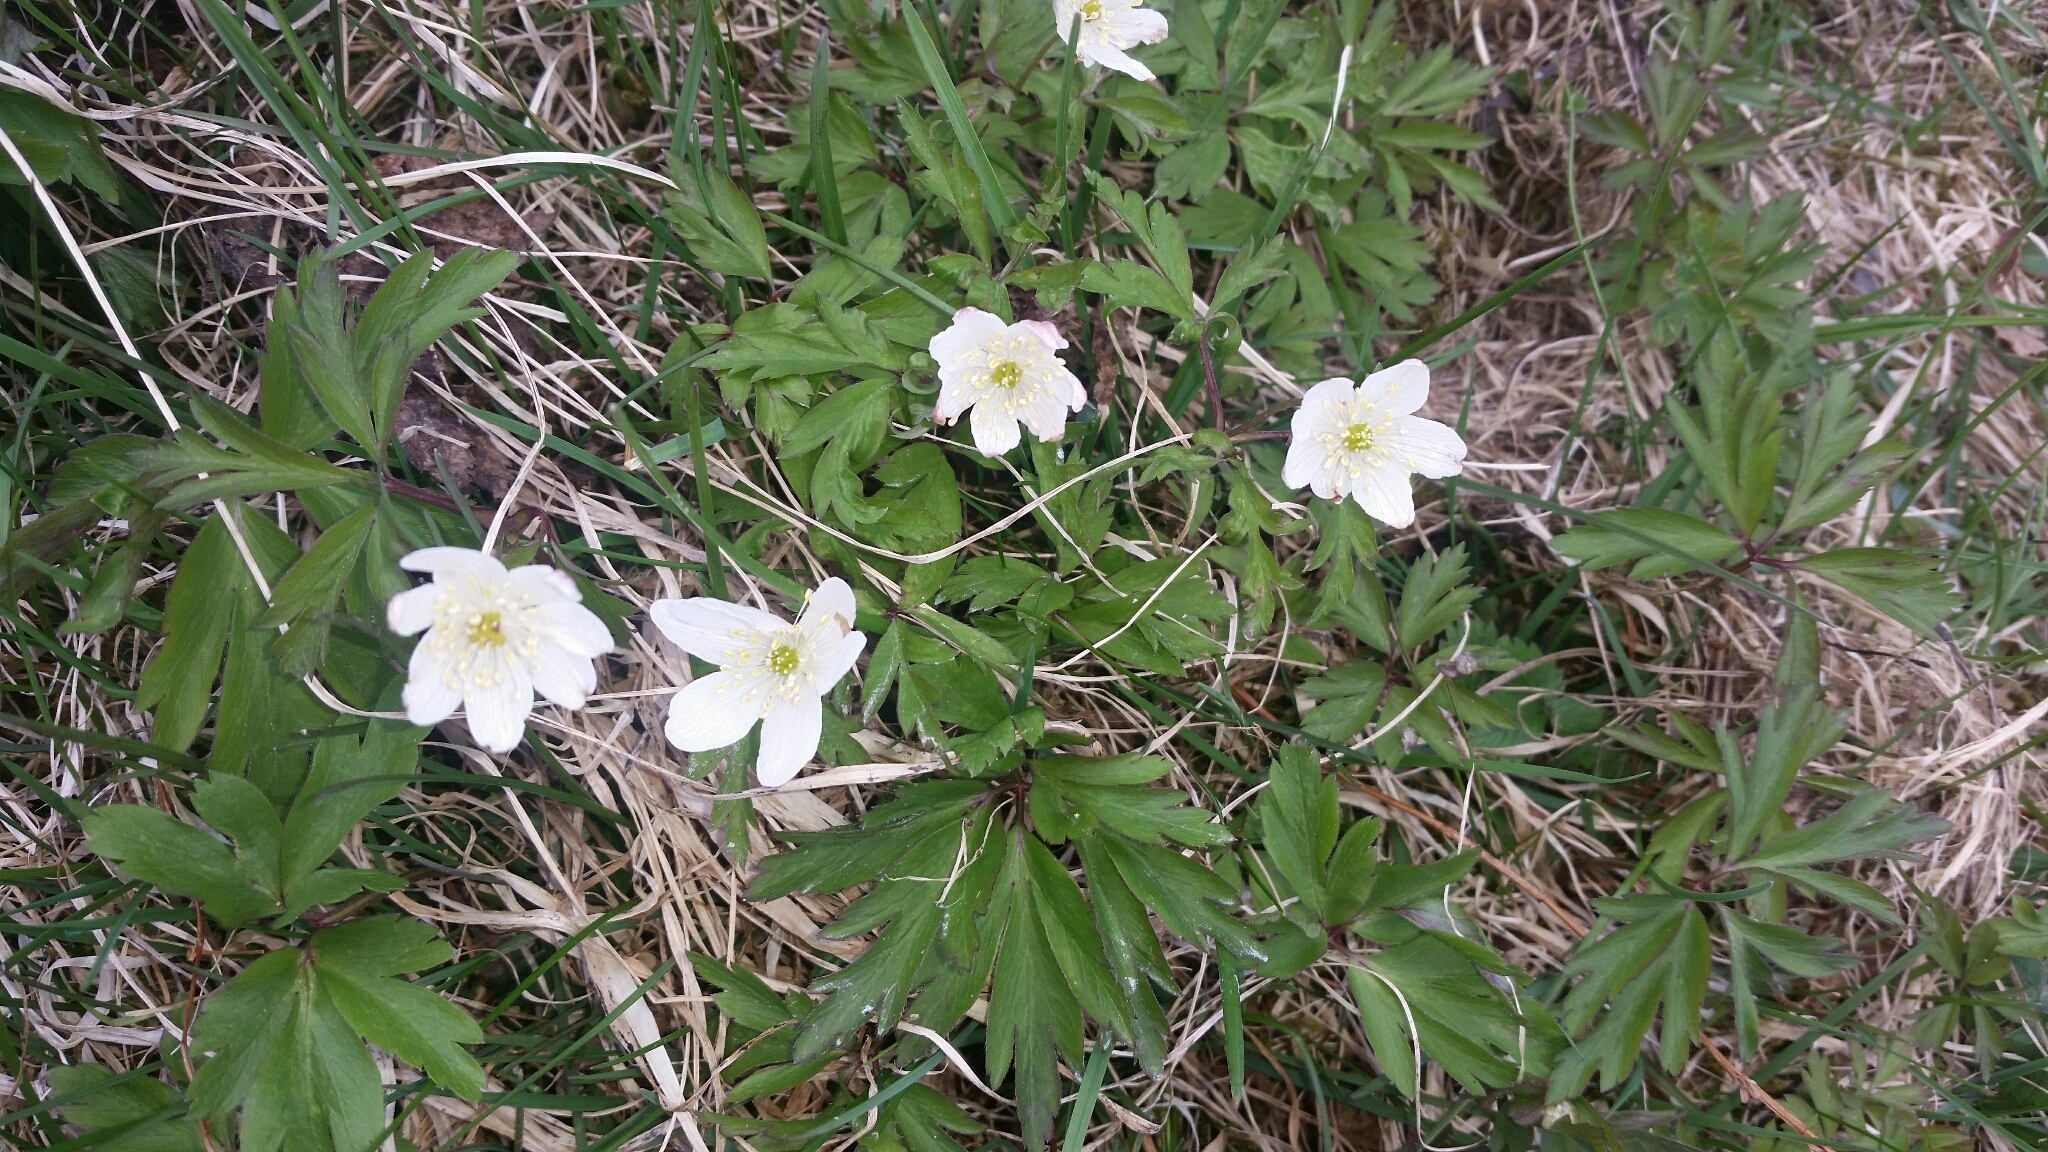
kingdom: Plantae
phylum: Tracheophyta
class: Magnoliopsida
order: Ranunculales
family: Ranunculaceae
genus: Anemone
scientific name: Anemone nemorosa
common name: Wood anemone
